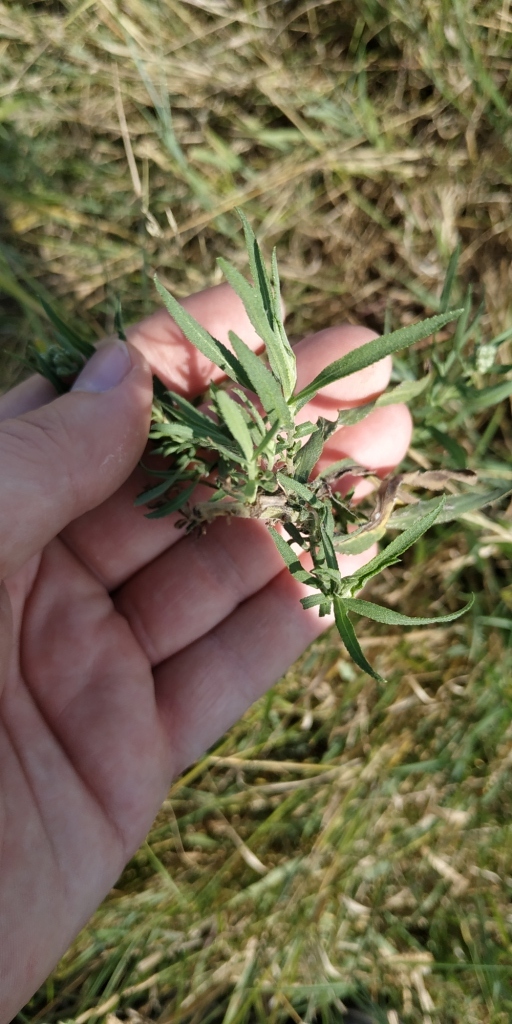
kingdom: Plantae
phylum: Tracheophyta
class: Magnoliopsida
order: Asterales
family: Asteraceae
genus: Achillea
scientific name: Achillea salicifolia
